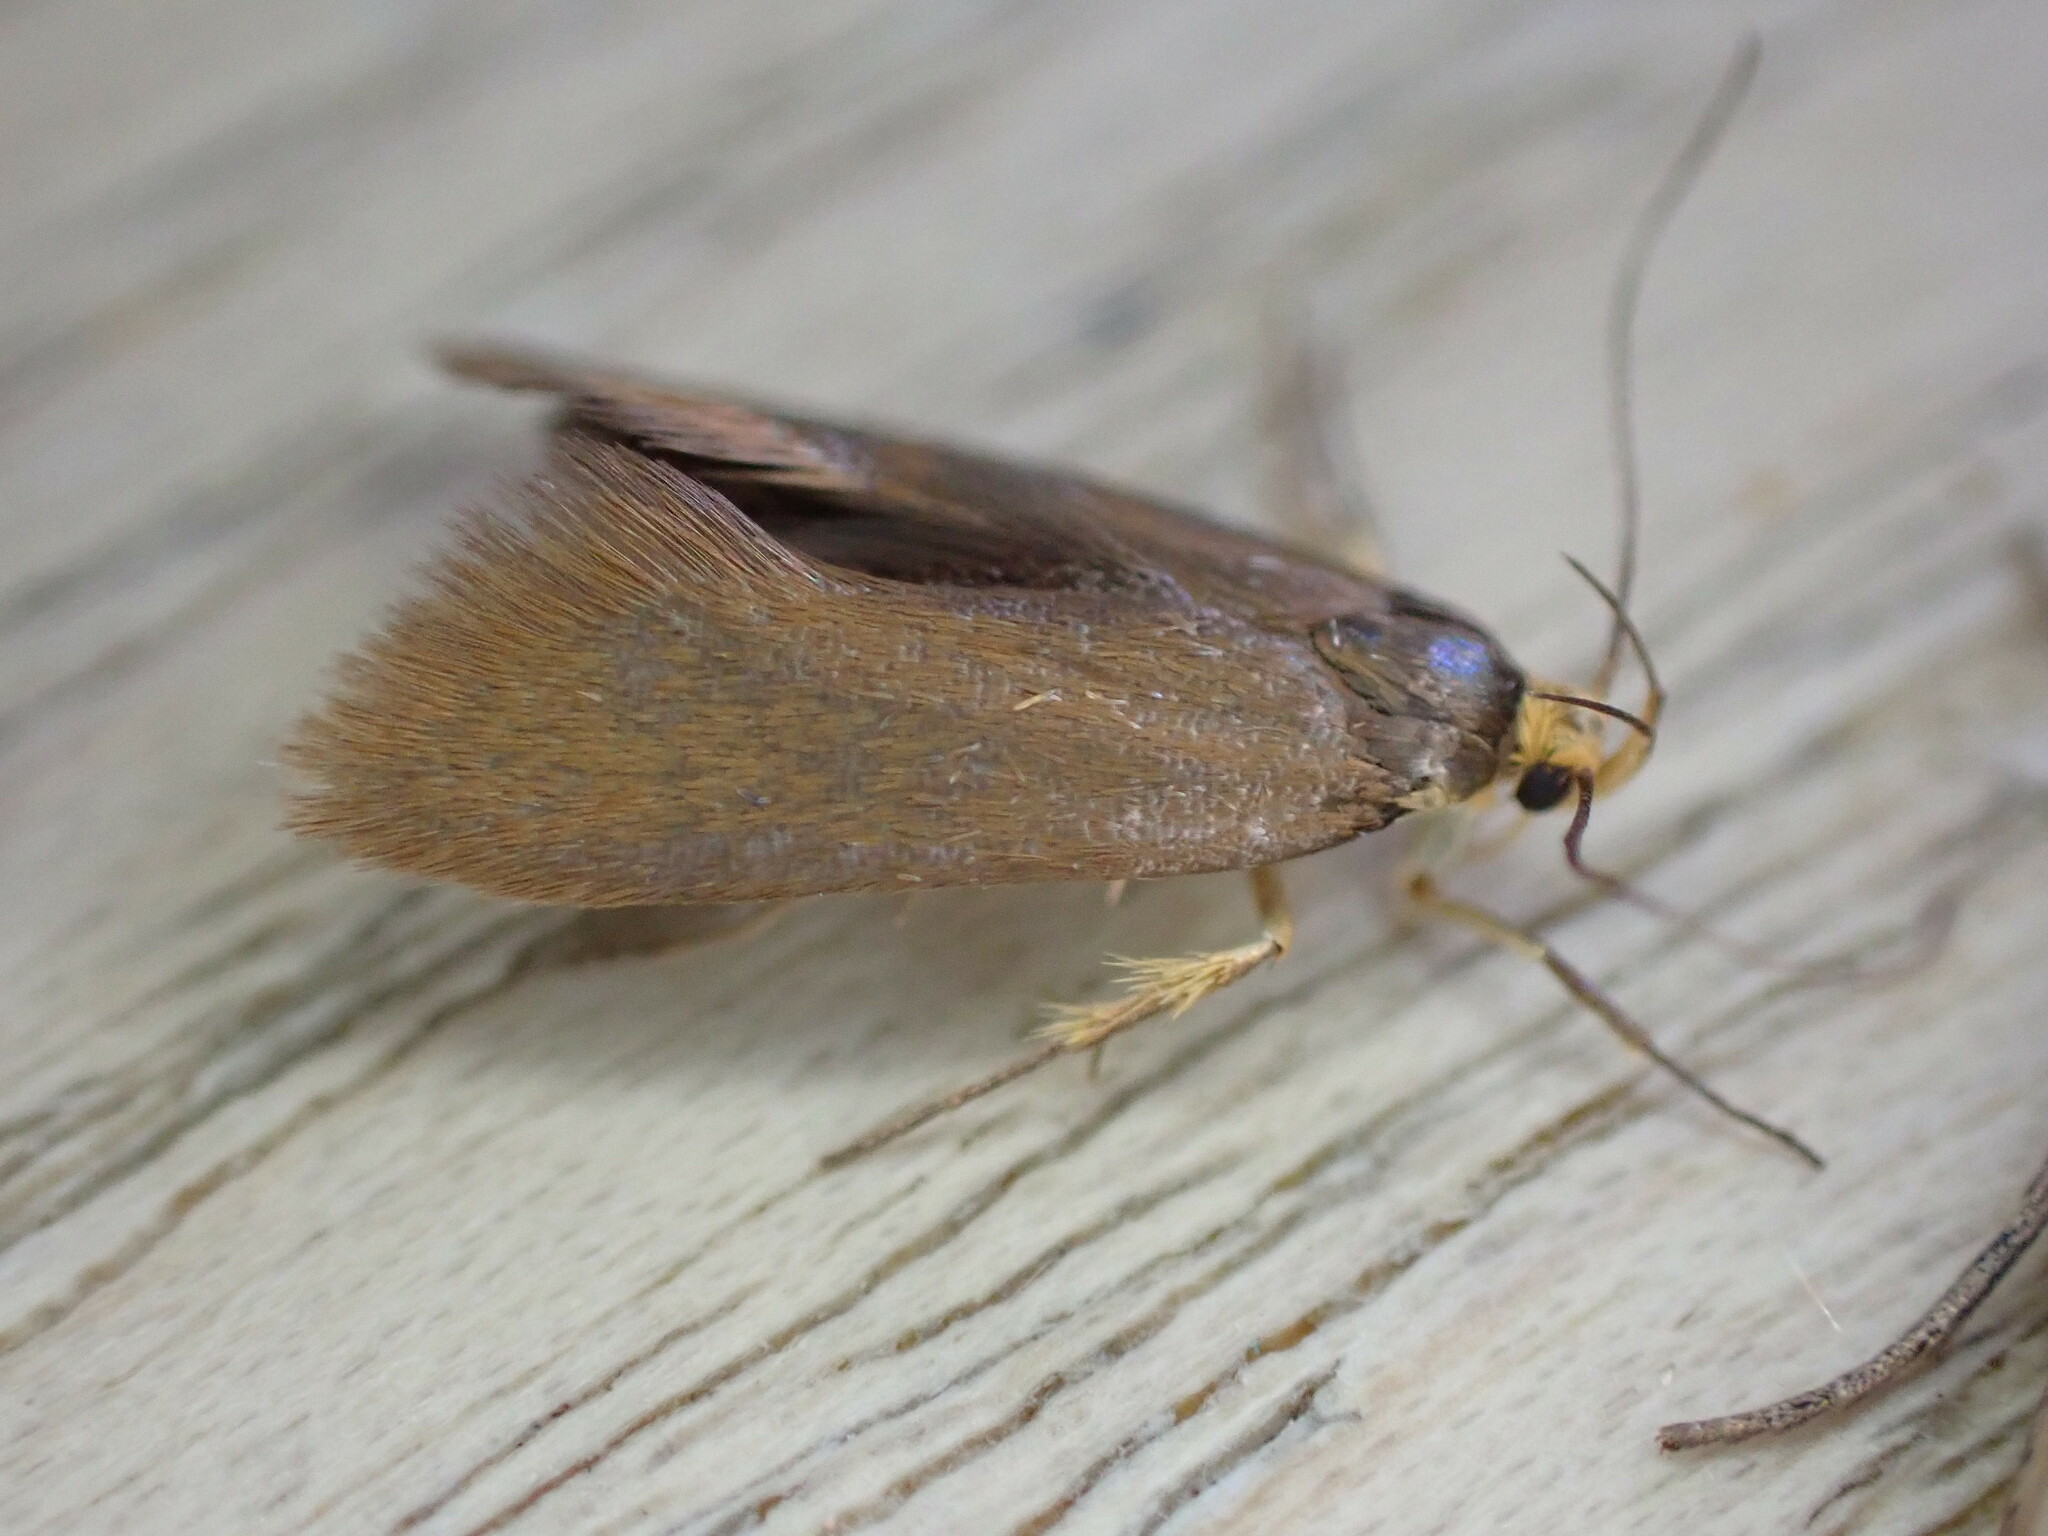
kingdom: Animalia
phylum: Arthropoda
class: Insecta
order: Lepidoptera
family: Oecophoridae
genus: Borkhausenia
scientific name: Borkhausenia Crassa unitella
